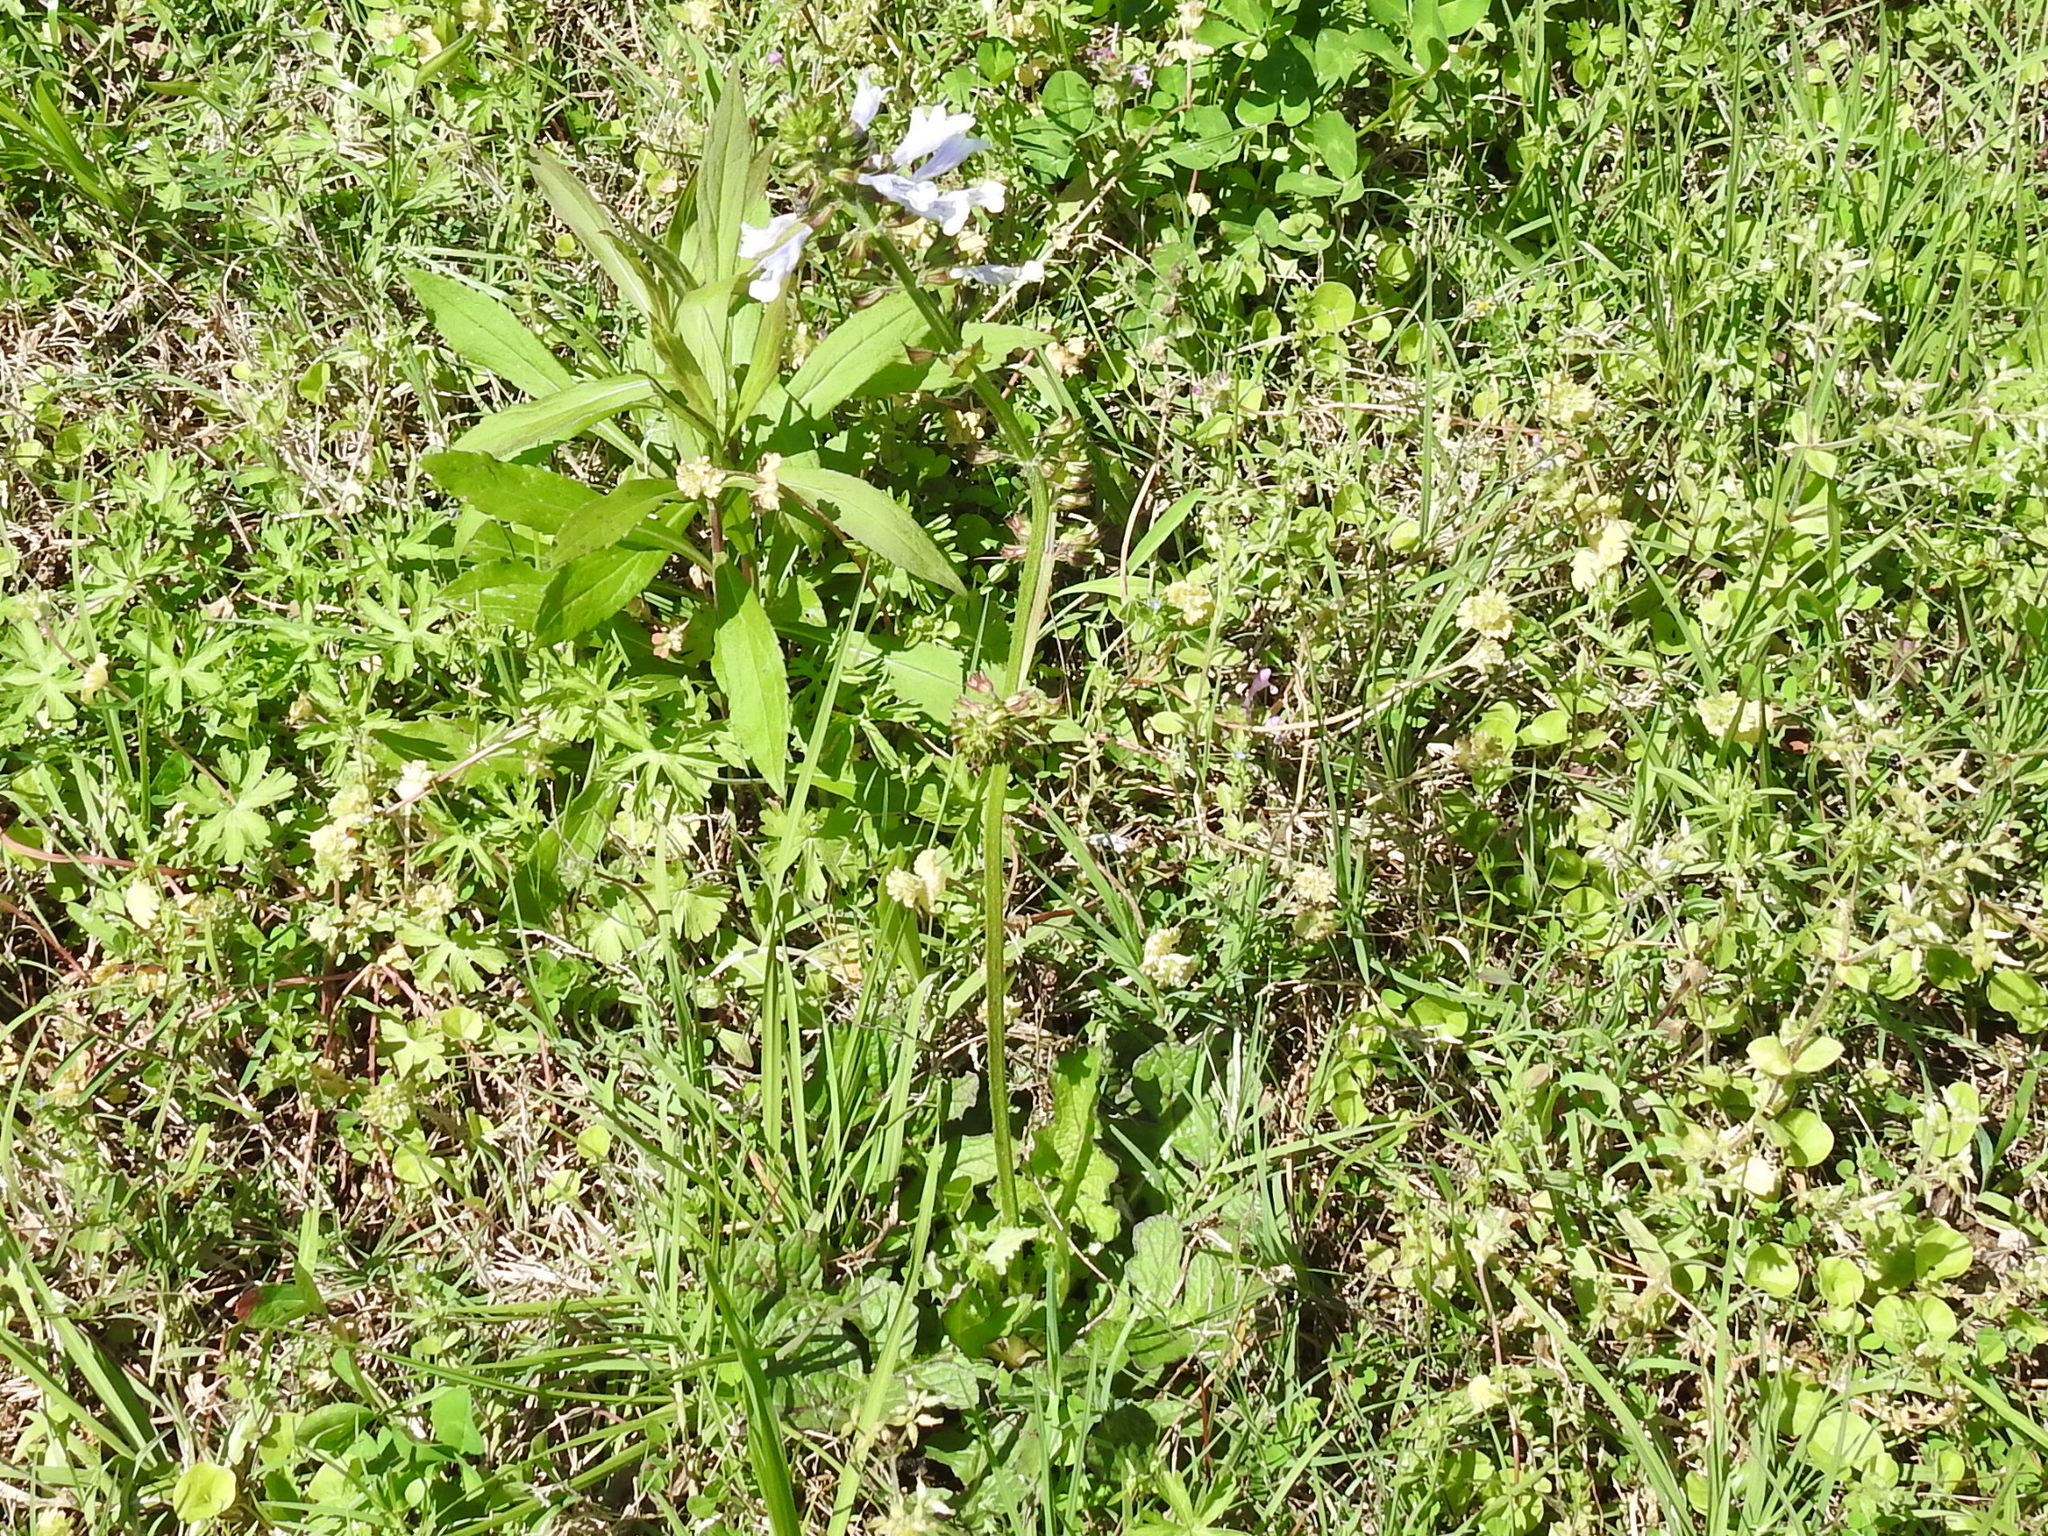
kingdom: Plantae
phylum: Tracheophyta
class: Magnoliopsida
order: Lamiales
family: Lamiaceae
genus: Salvia
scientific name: Salvia lyrata
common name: Cancerweed
